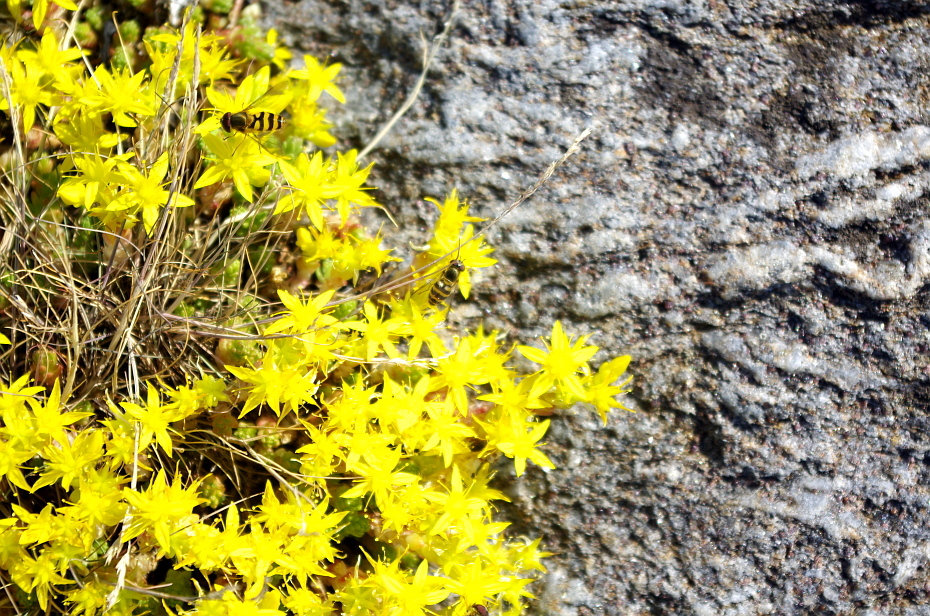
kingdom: Plantae
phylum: Tracheophyta
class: Magnoliopsida
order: Saxifragales
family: Crassulaceae
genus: Sedum
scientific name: Sedum acre
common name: Biting stonecrop
